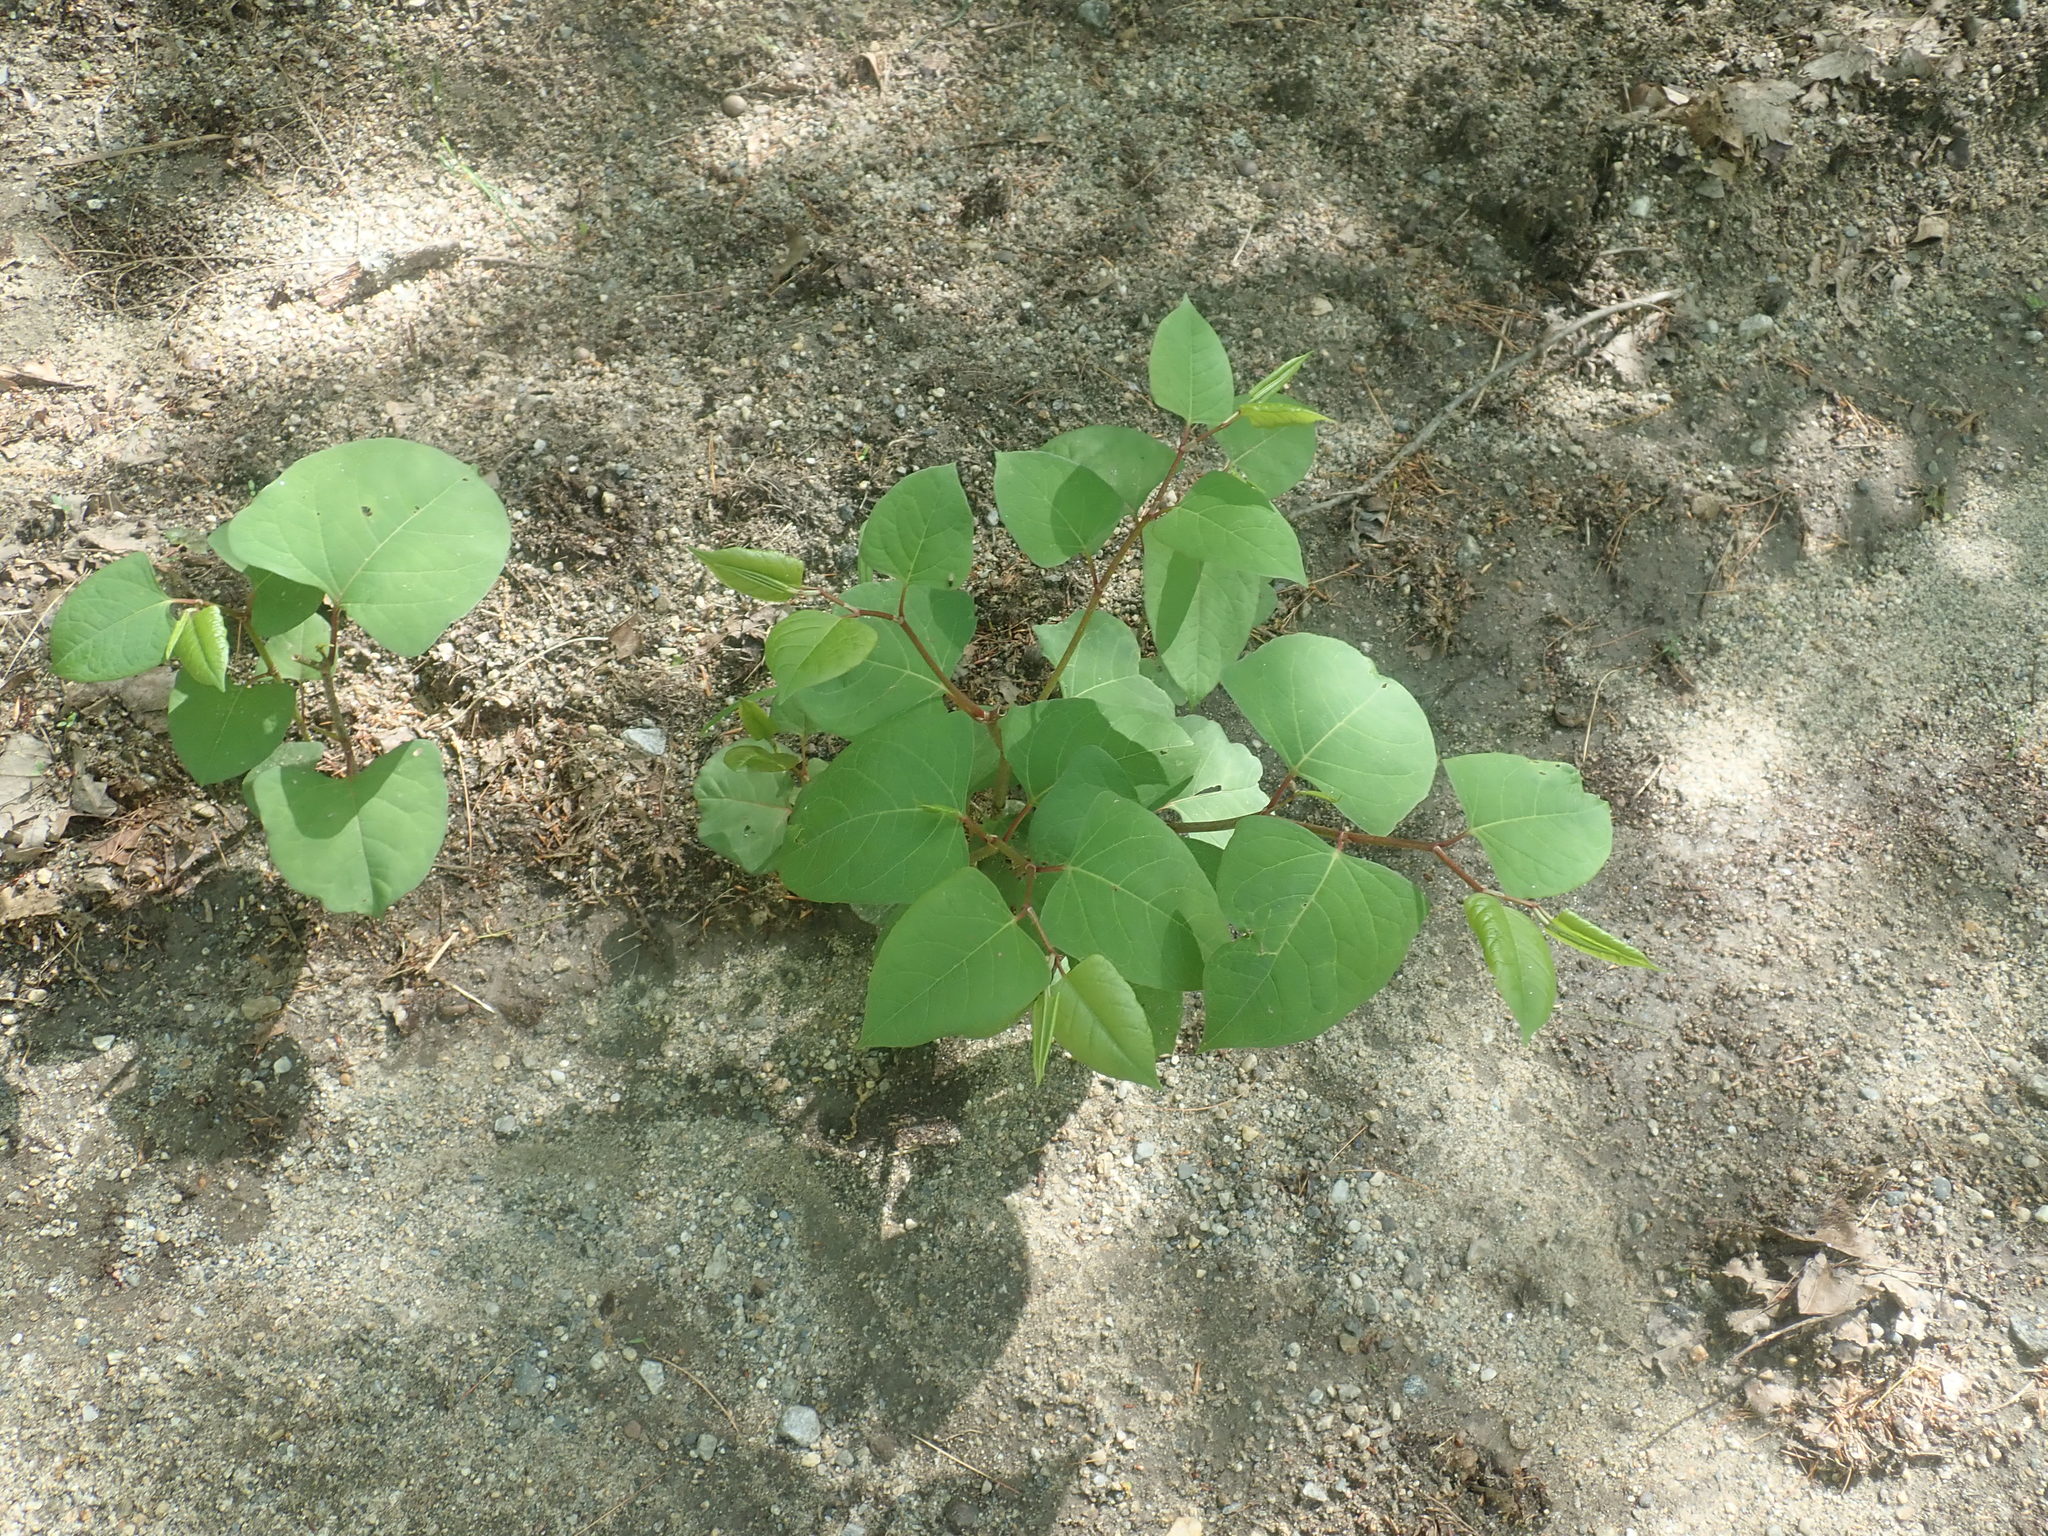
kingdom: Plantae
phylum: Tracheophyta
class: Magnoliopsida
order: Caryophyllales
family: Polygonaceae
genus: Reynoutria
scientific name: Reynoutria japonica
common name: Japanese knotweed
